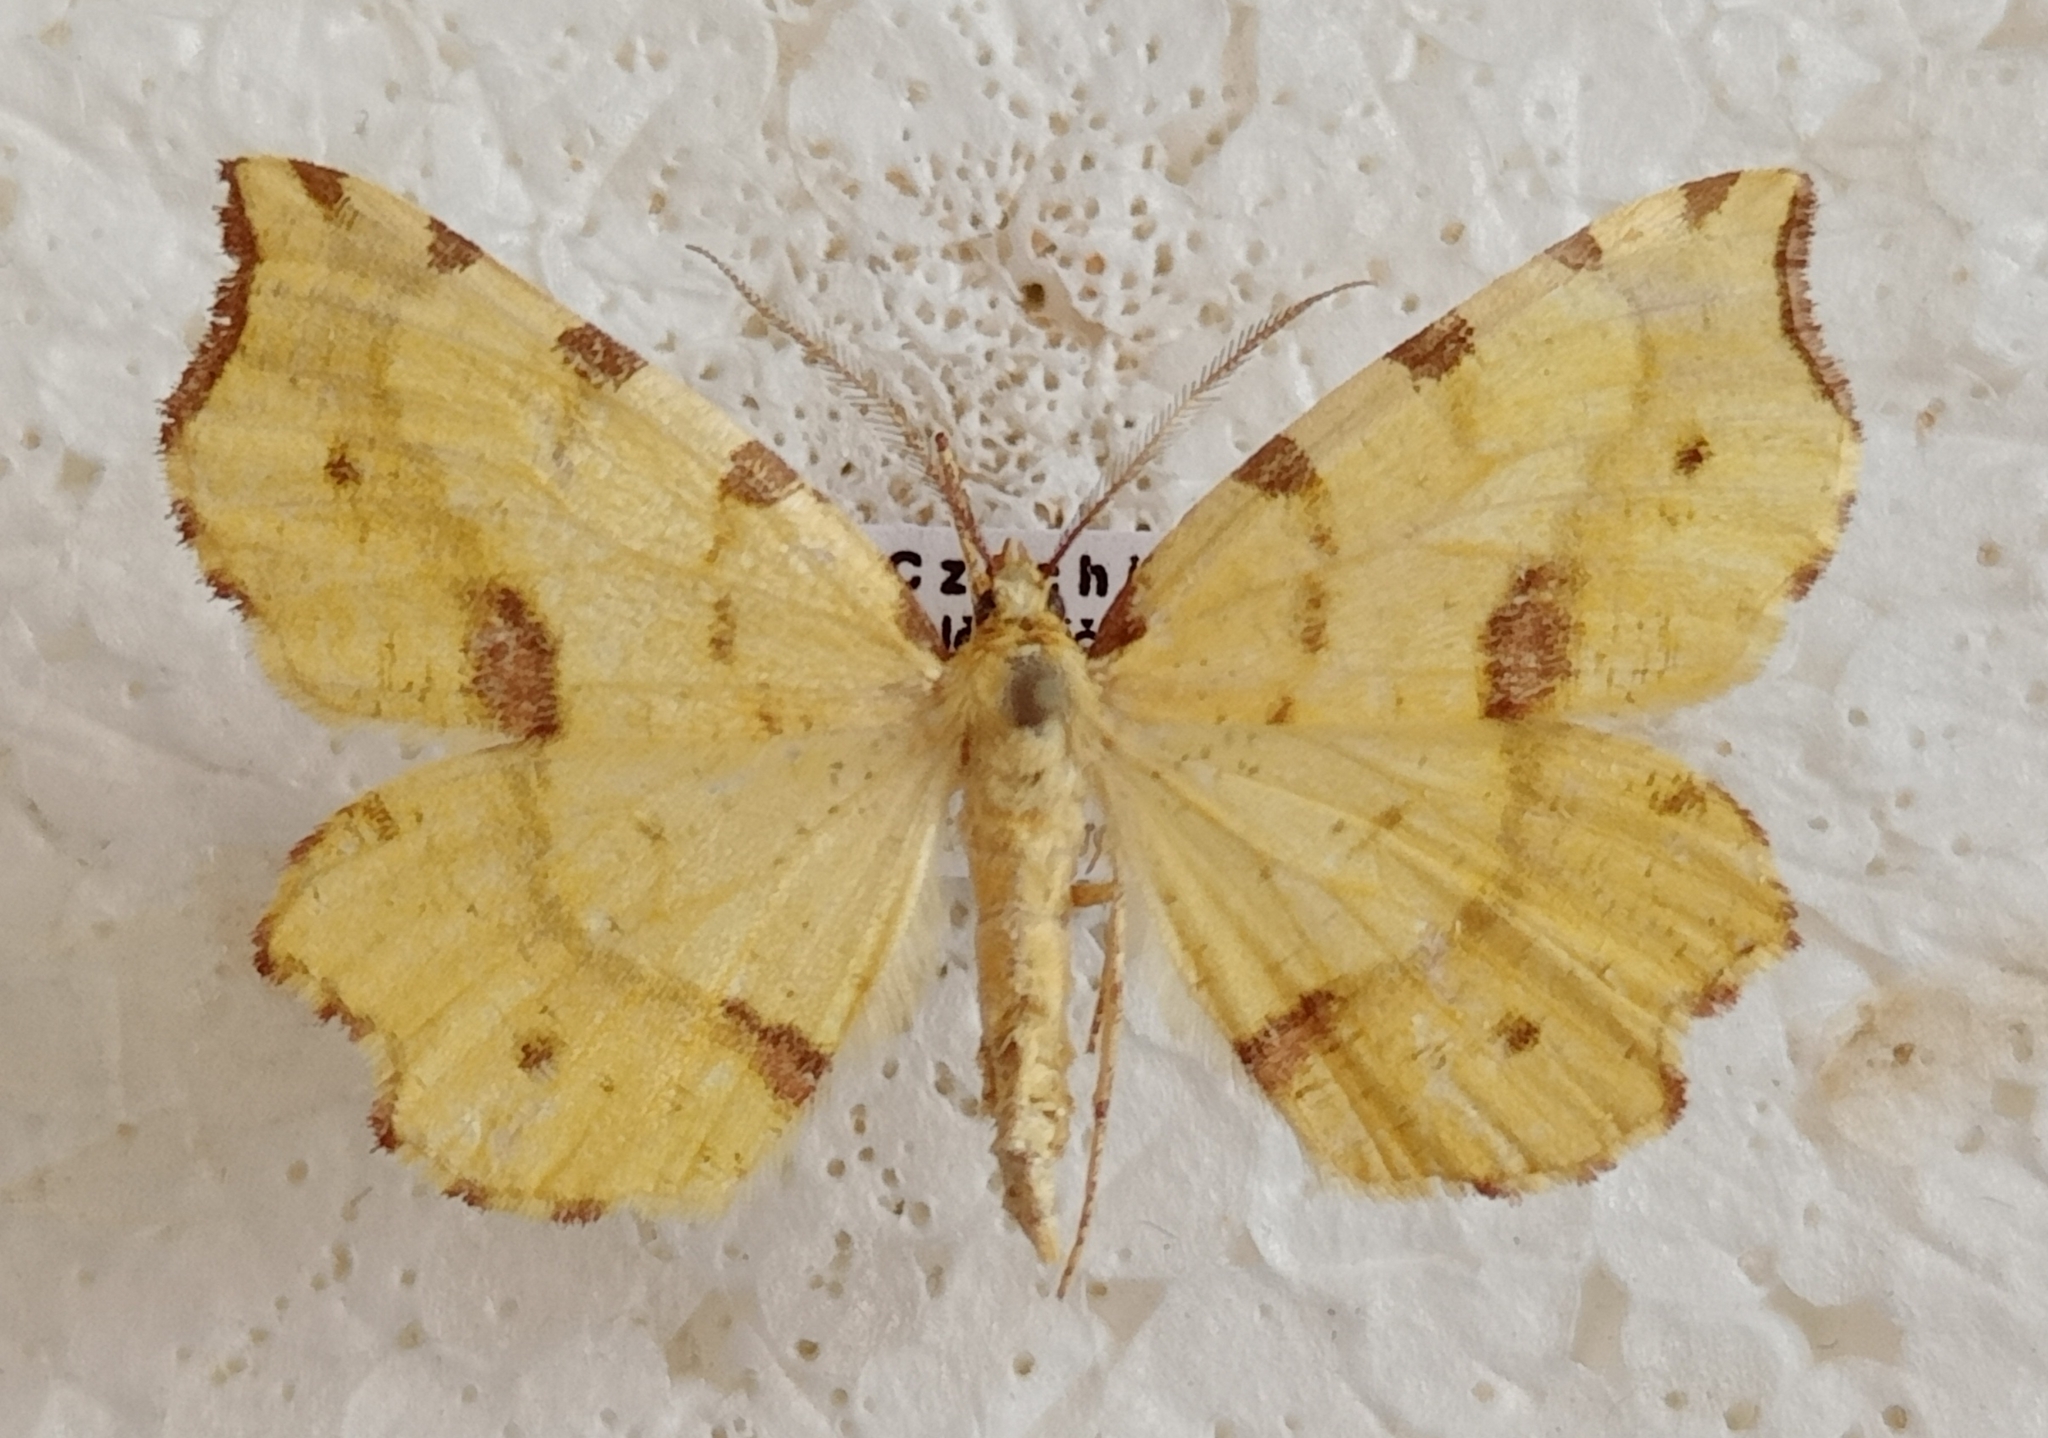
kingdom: Animalia
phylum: Arthropoda
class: Insecta
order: Lepidoptera
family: Geometridae
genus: Therapis
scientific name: Therapis flavicaria
